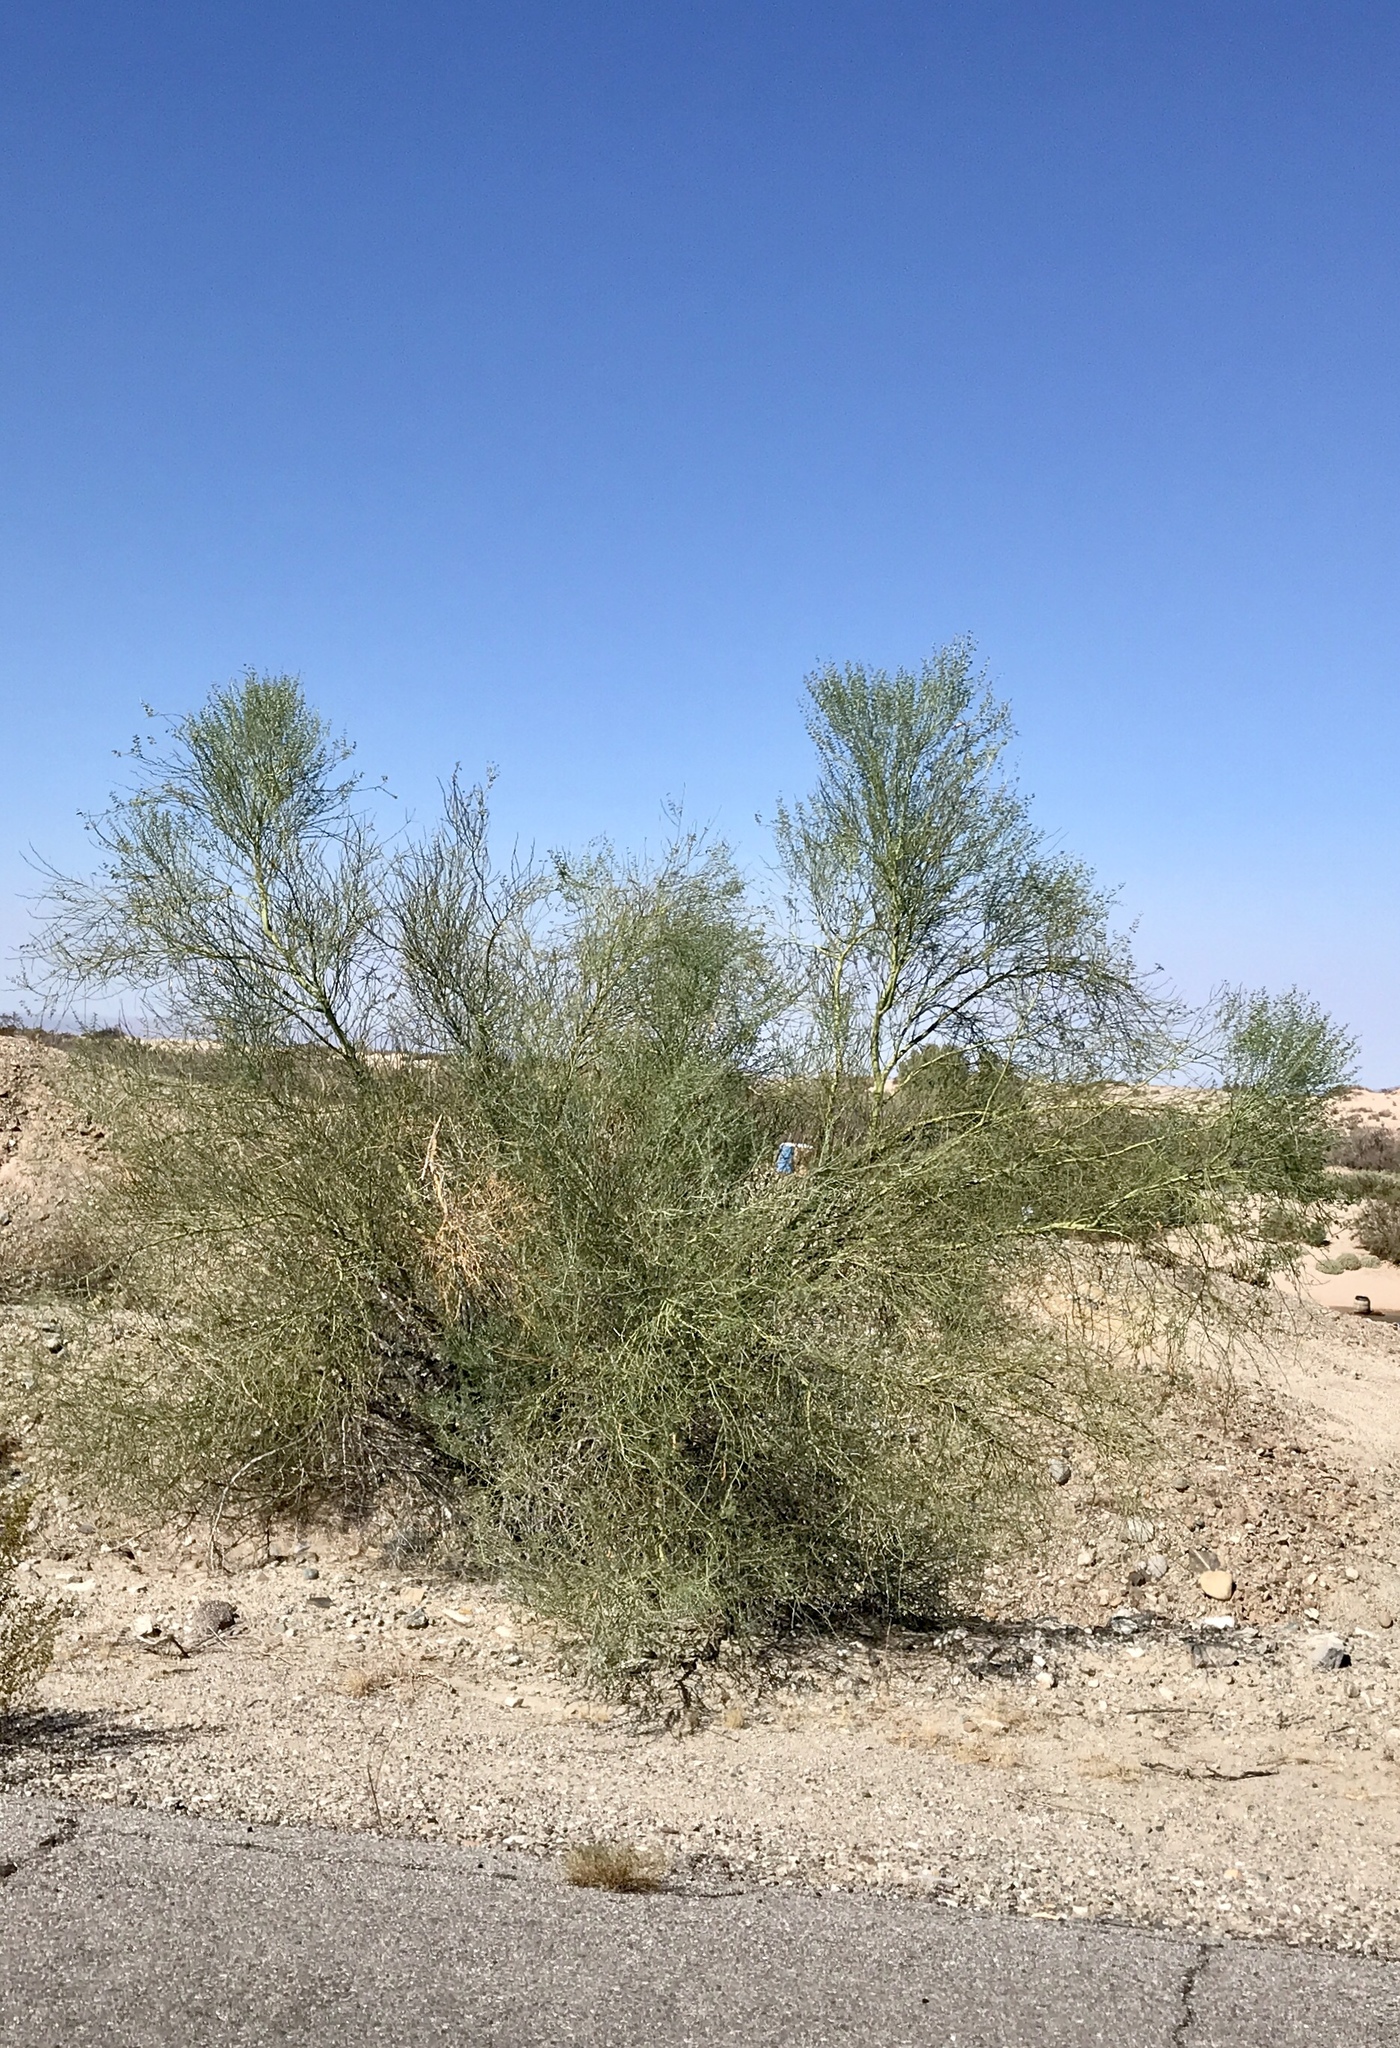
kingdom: Plantae
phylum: Tracheophyta
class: Magnoliopsida
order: Fabales
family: Fabaceae
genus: Parkinsonia
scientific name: Parkinsonia florida
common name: Blue paloverde
